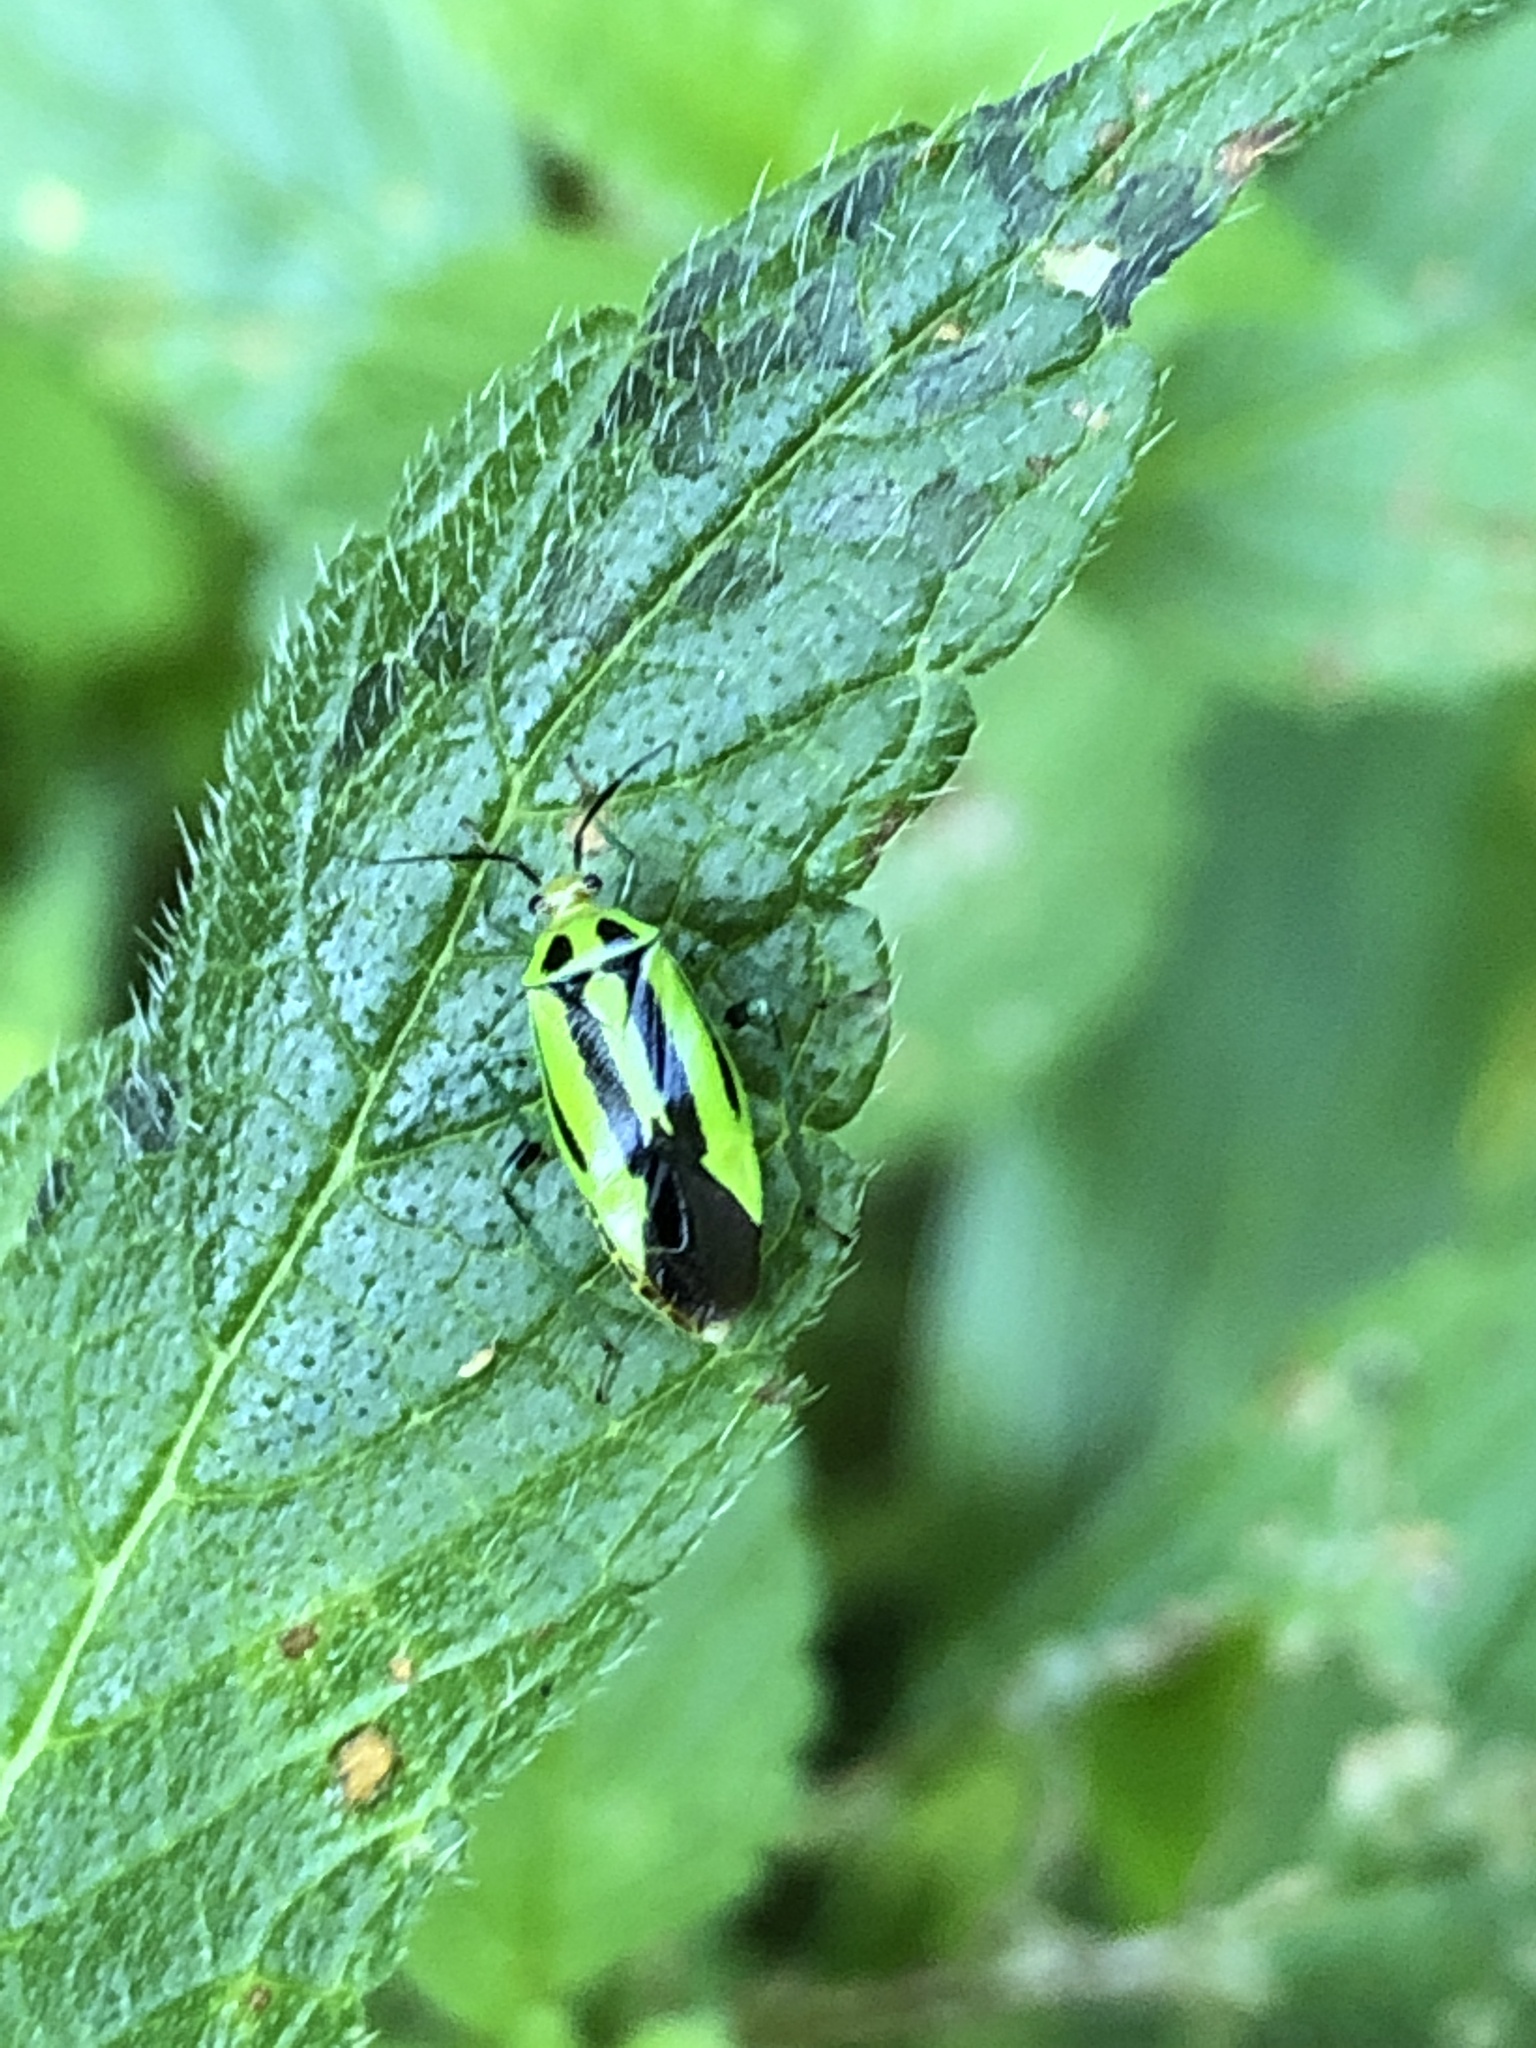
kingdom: Animalia
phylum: Arthropoda
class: Insecta
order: Hemiptera
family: Miridae
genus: Poecilocapsus
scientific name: Poecilocapsus lineatus
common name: Four-lined plant bug
